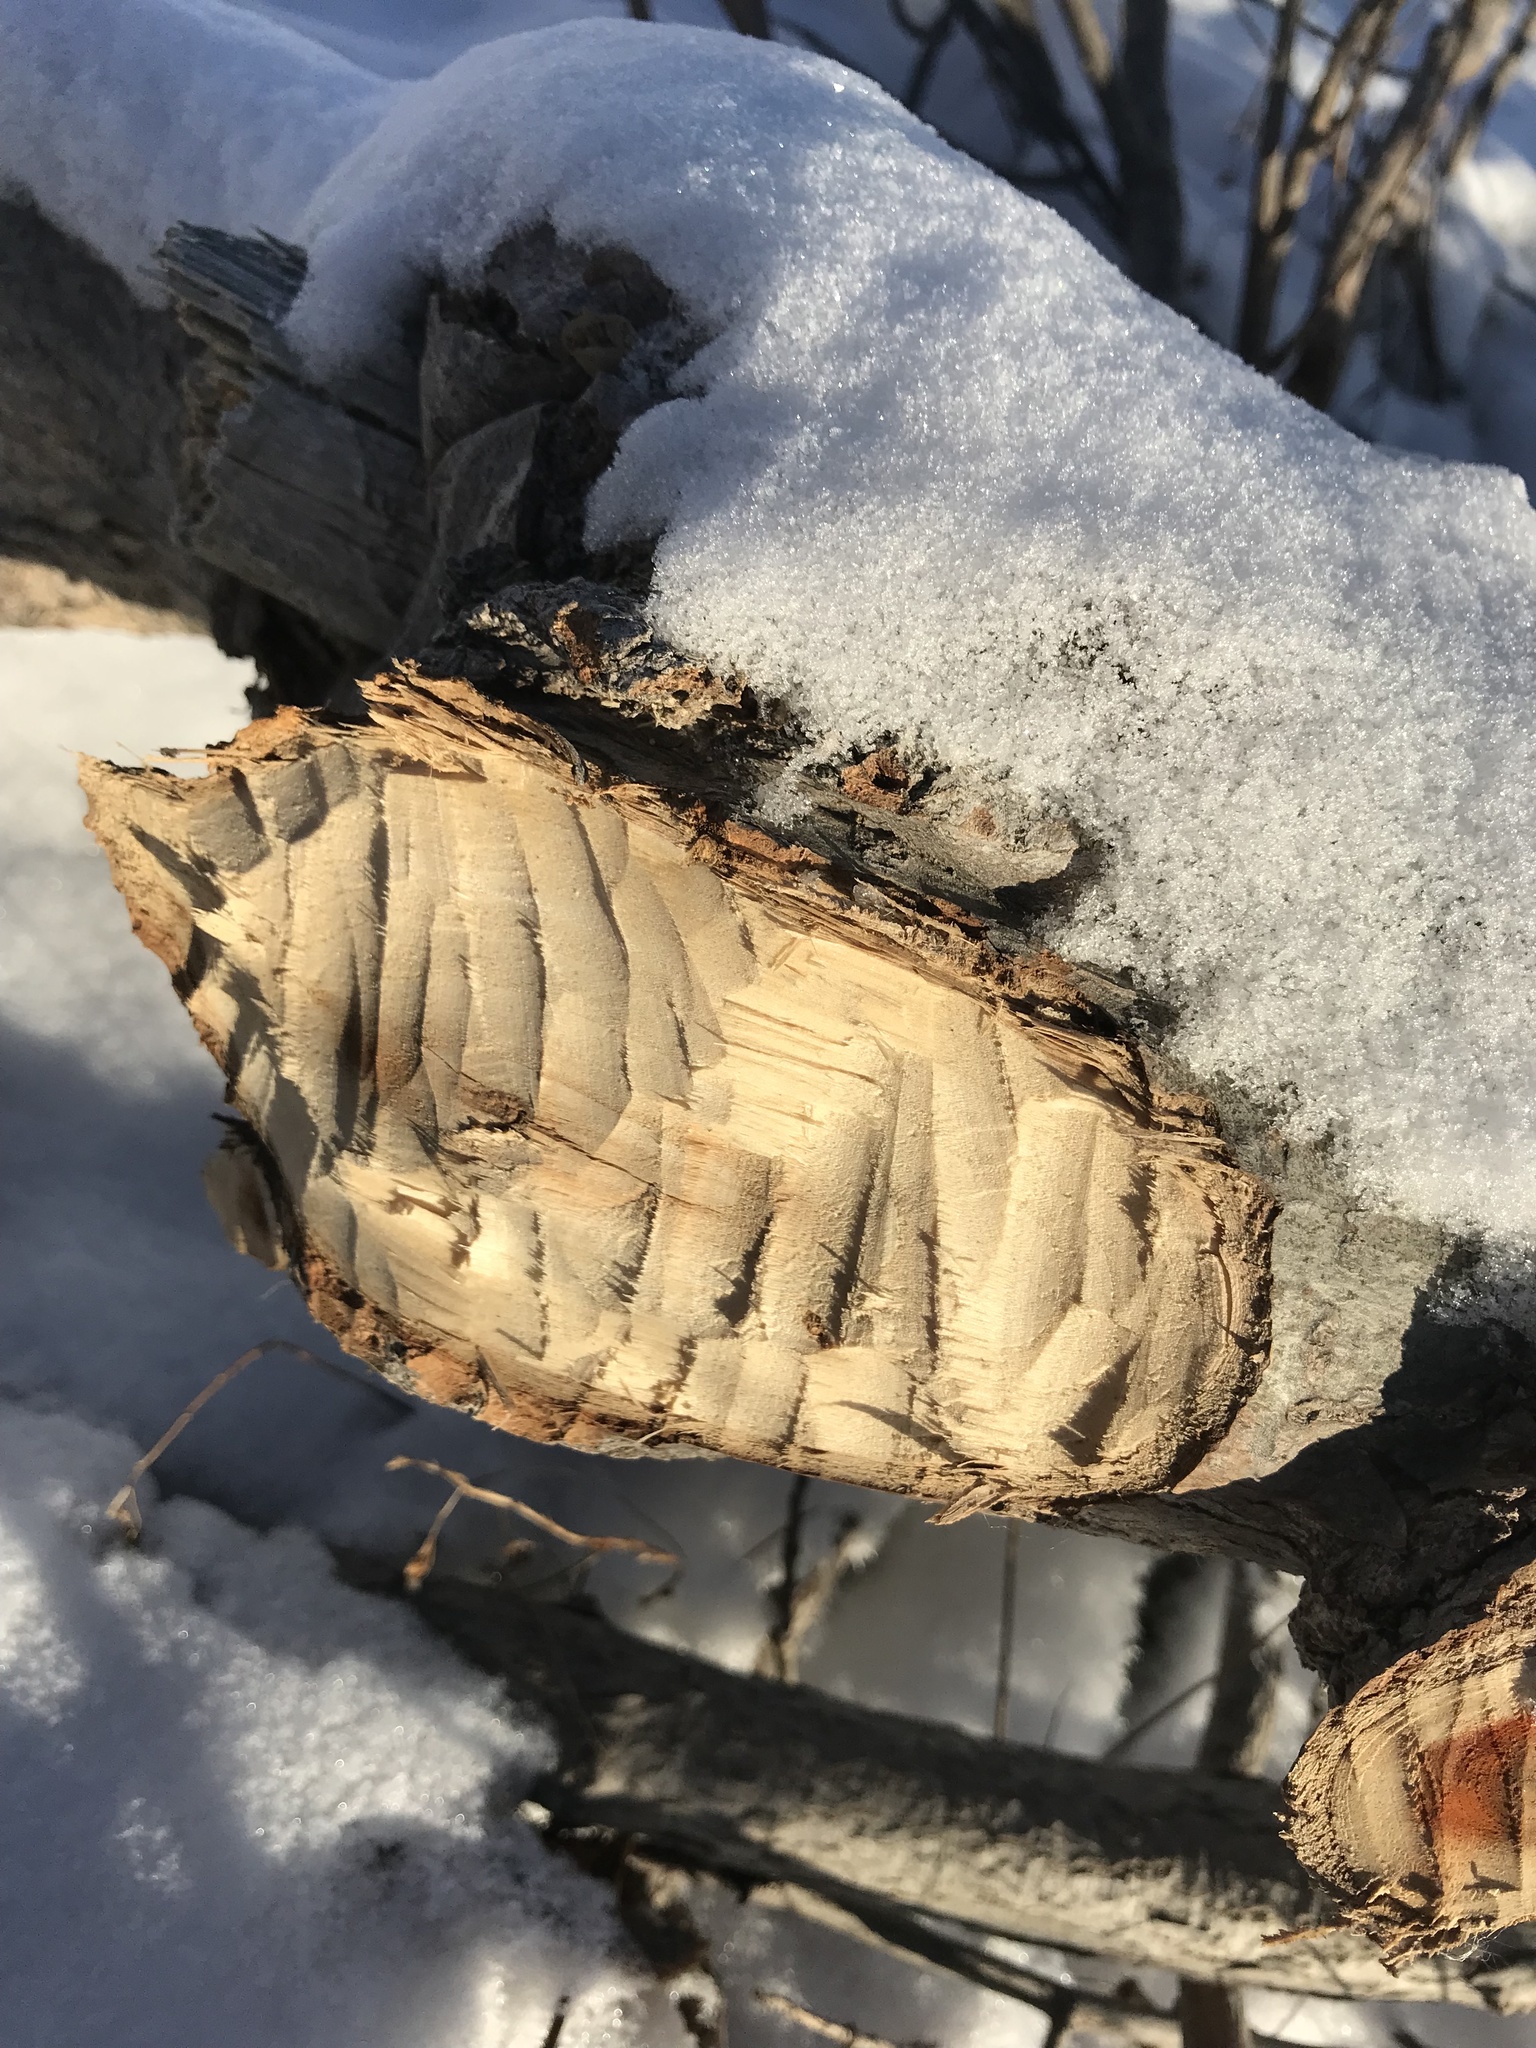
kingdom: Animalia
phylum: Chordata
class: Mammalia
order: Rodentia
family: Castoridae
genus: Castor
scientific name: Castor canadensis
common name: American beaver
